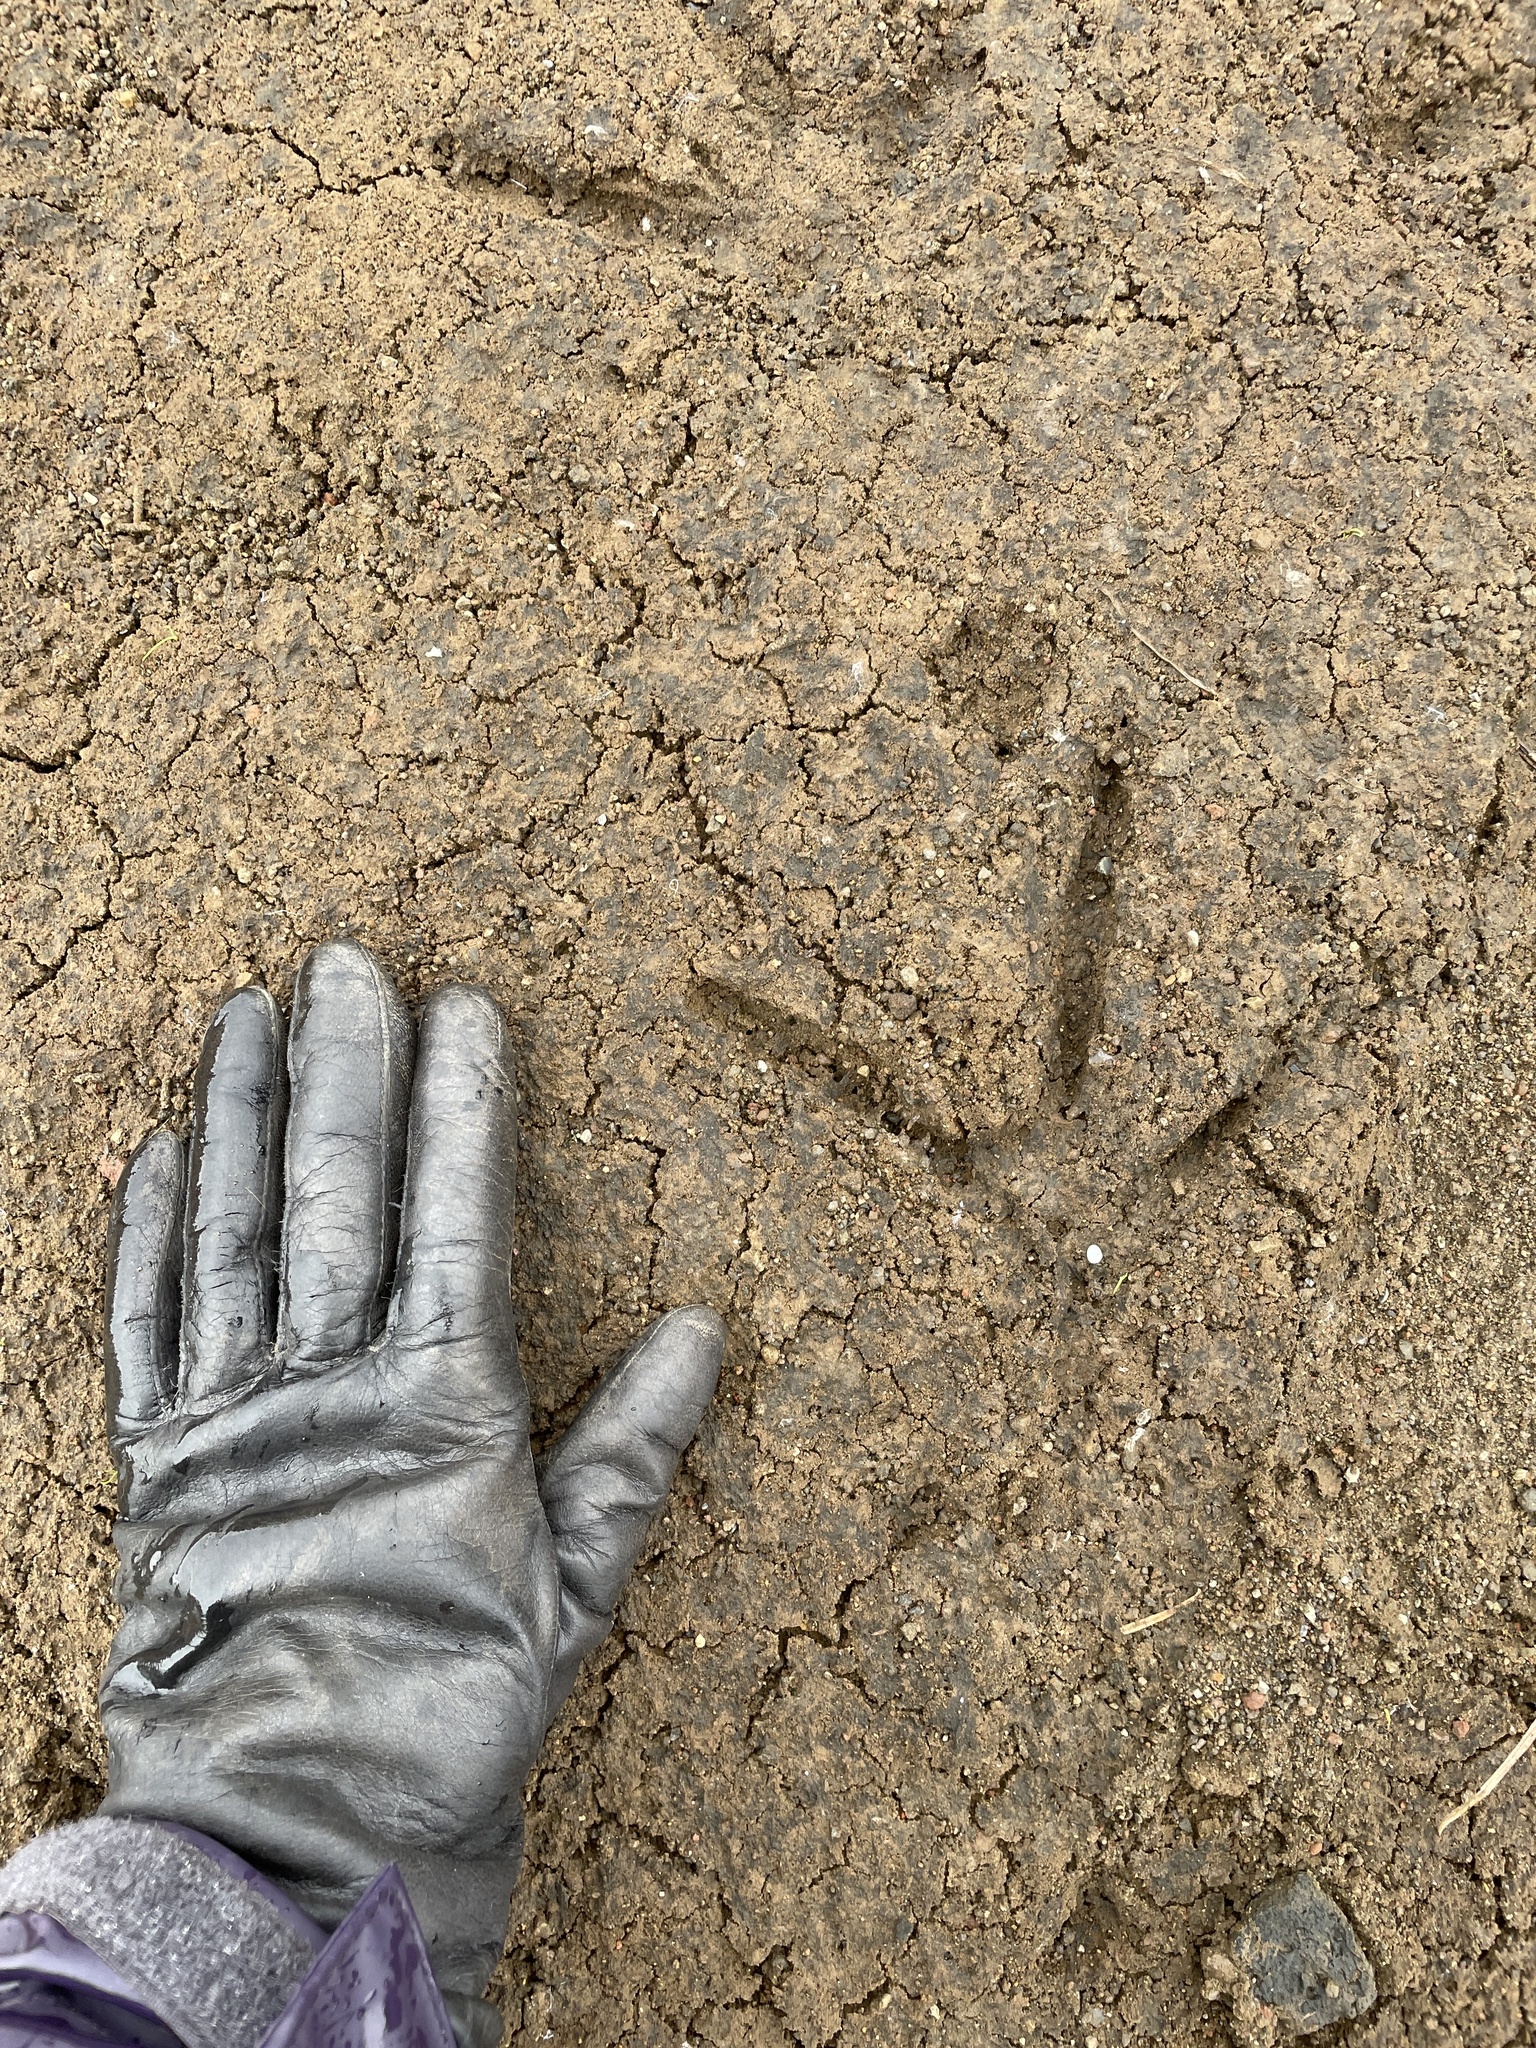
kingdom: Animalia
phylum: Chordata
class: Aves
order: Pelecaniformes
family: Ardeidae
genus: Ardea
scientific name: Ardea herodias
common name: Great blue heron
